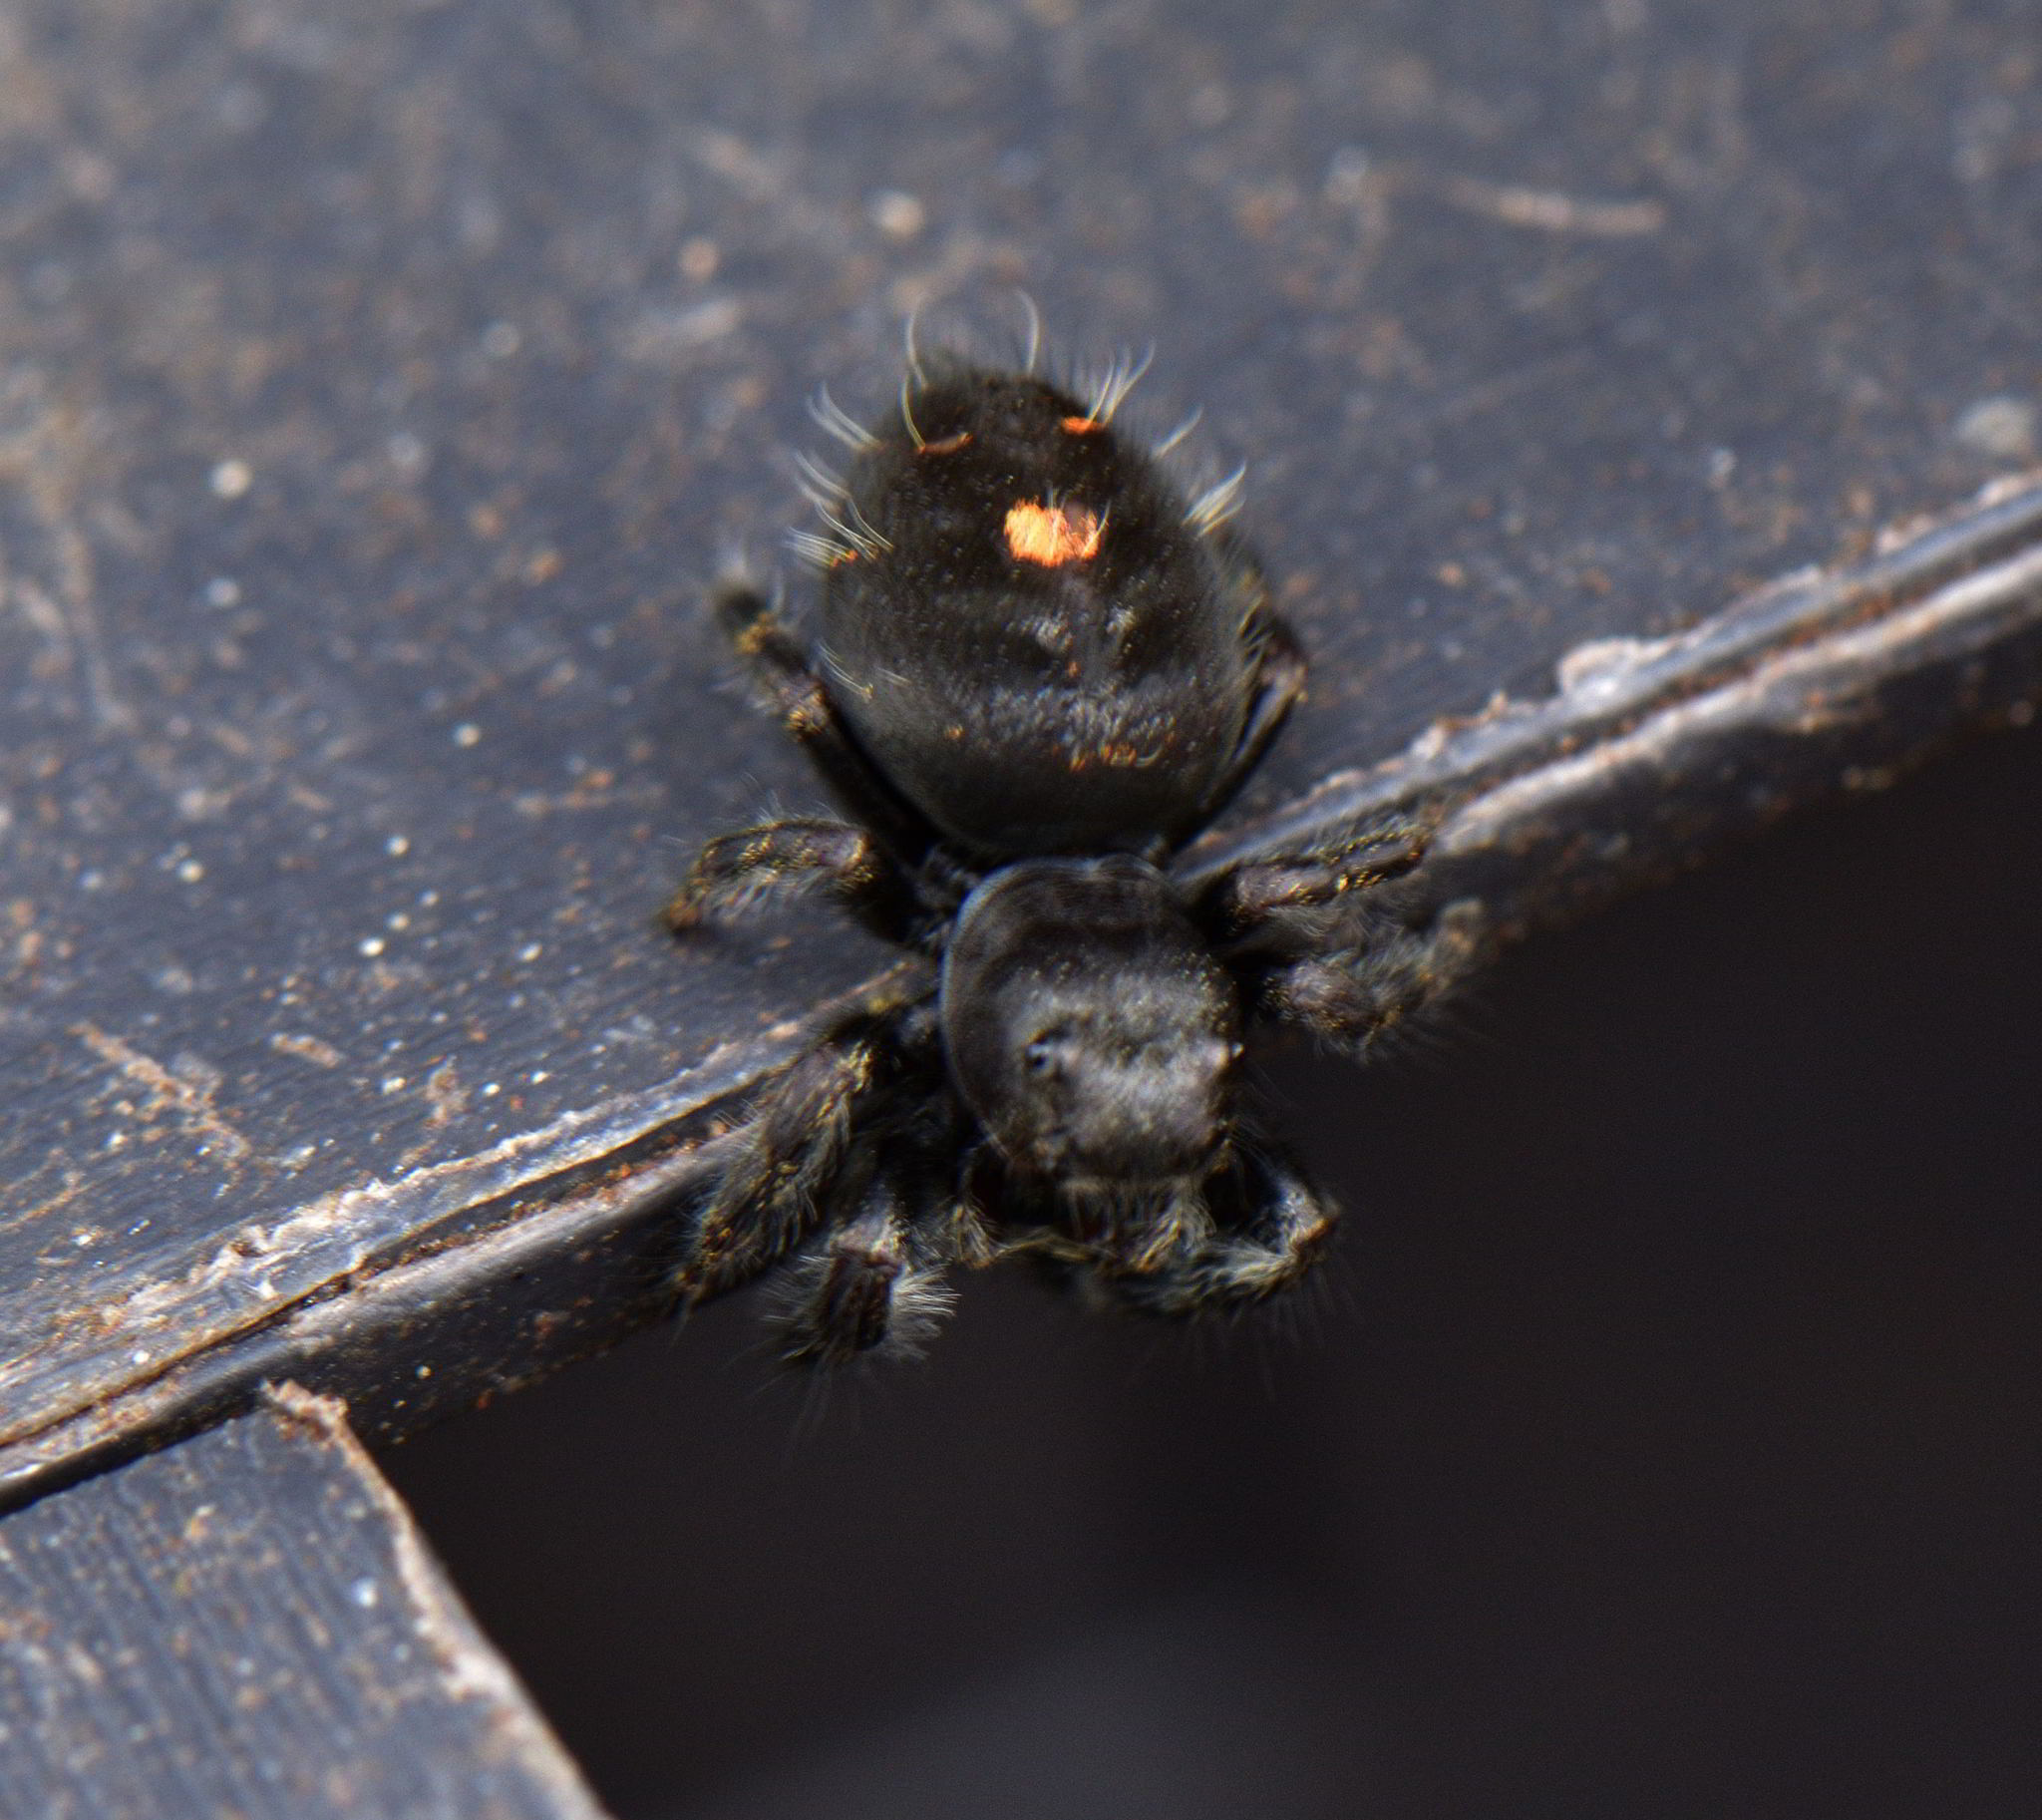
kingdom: Animalia
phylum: Arthropoda
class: Arachnida
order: Araneae
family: Salticidae
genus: Phidippus
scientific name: Phidippus audax
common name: Bold jumper
